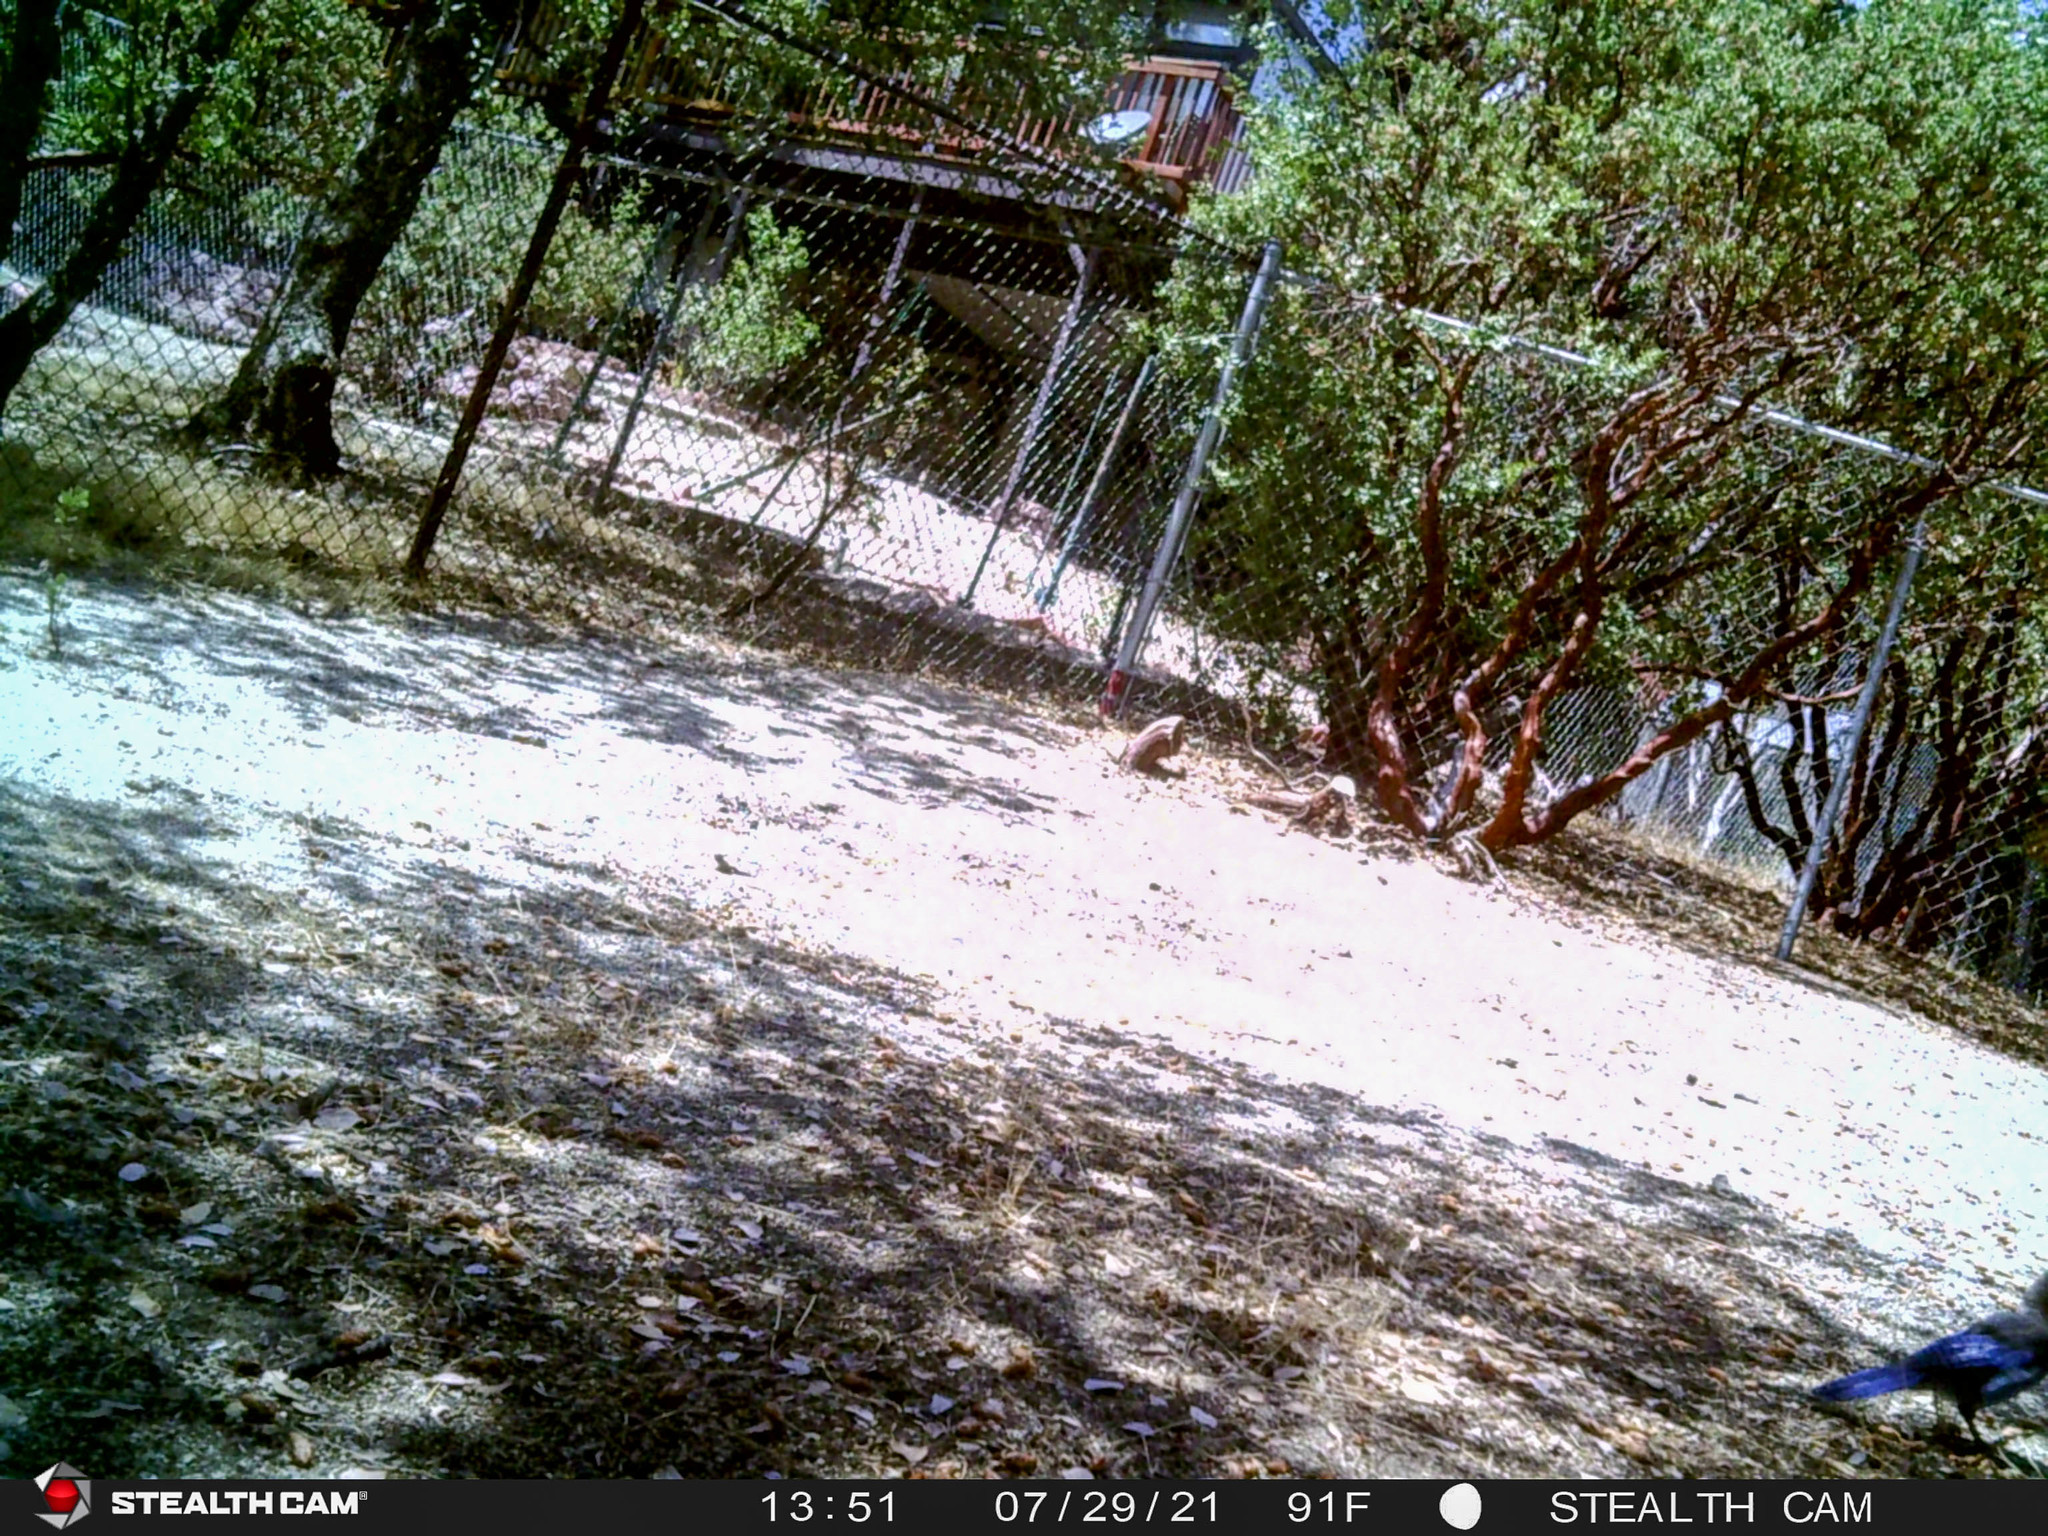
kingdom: Animalia
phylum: Chordata
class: Aves
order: Passeriformes
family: Corvidae
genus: Cyanocitta
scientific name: Cyanocitta stelleri
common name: Steller's jay
